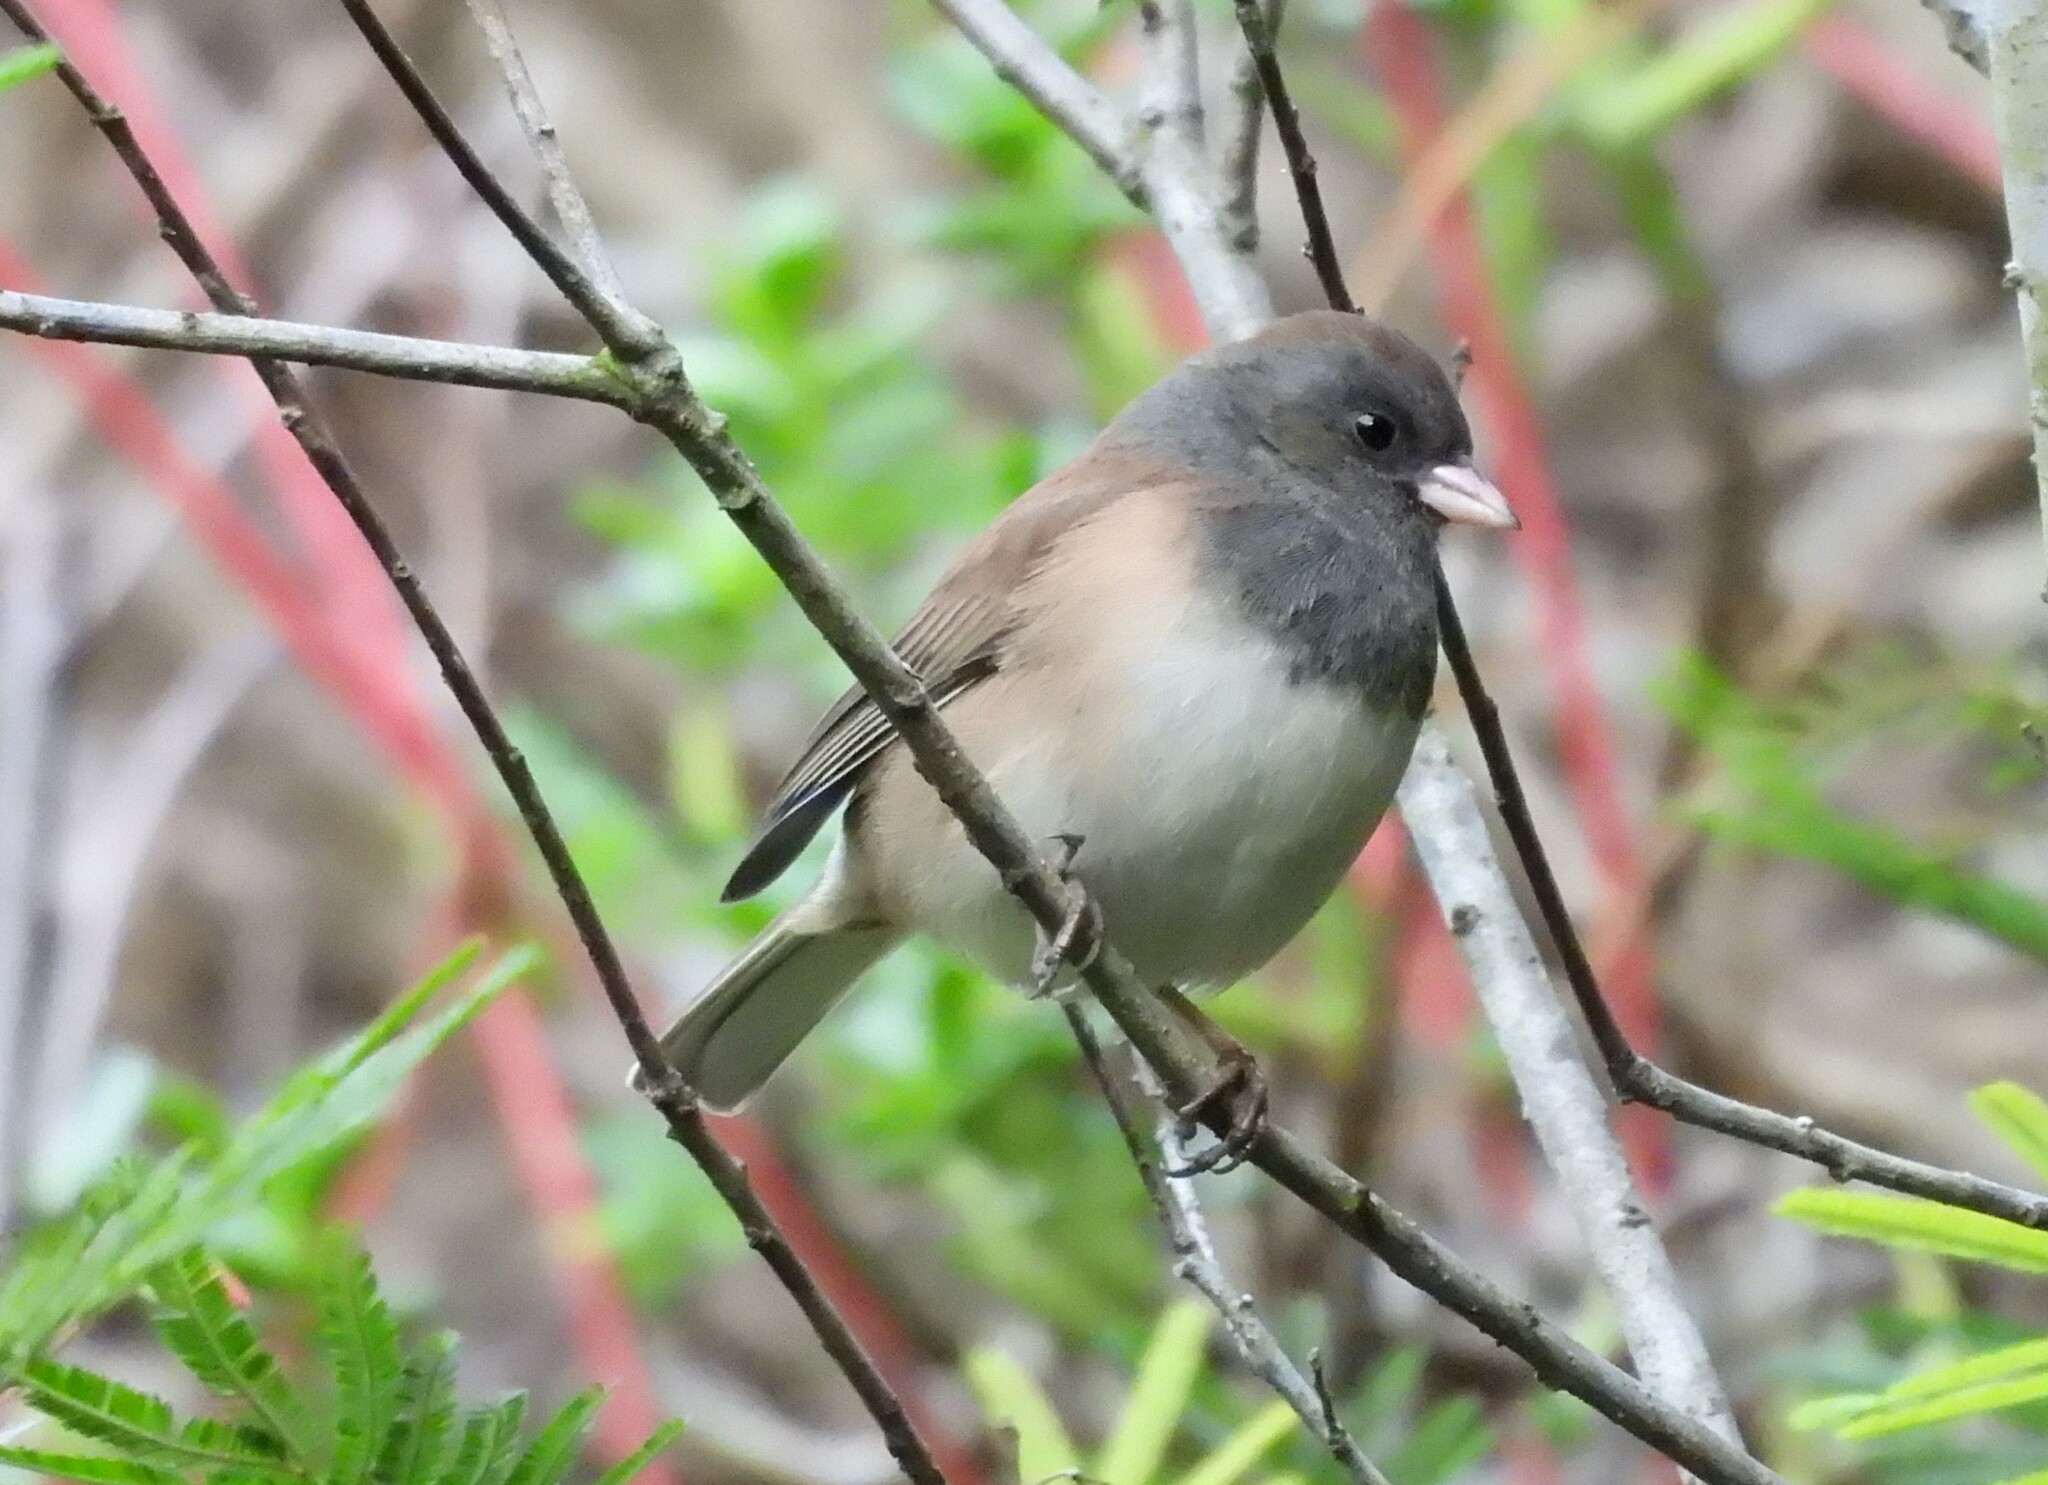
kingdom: Animalia
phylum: Chordata
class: Aves
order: Passeriformes
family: Passerellidae
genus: Junco
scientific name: Junco hyemalis
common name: Dark-eyed junco
